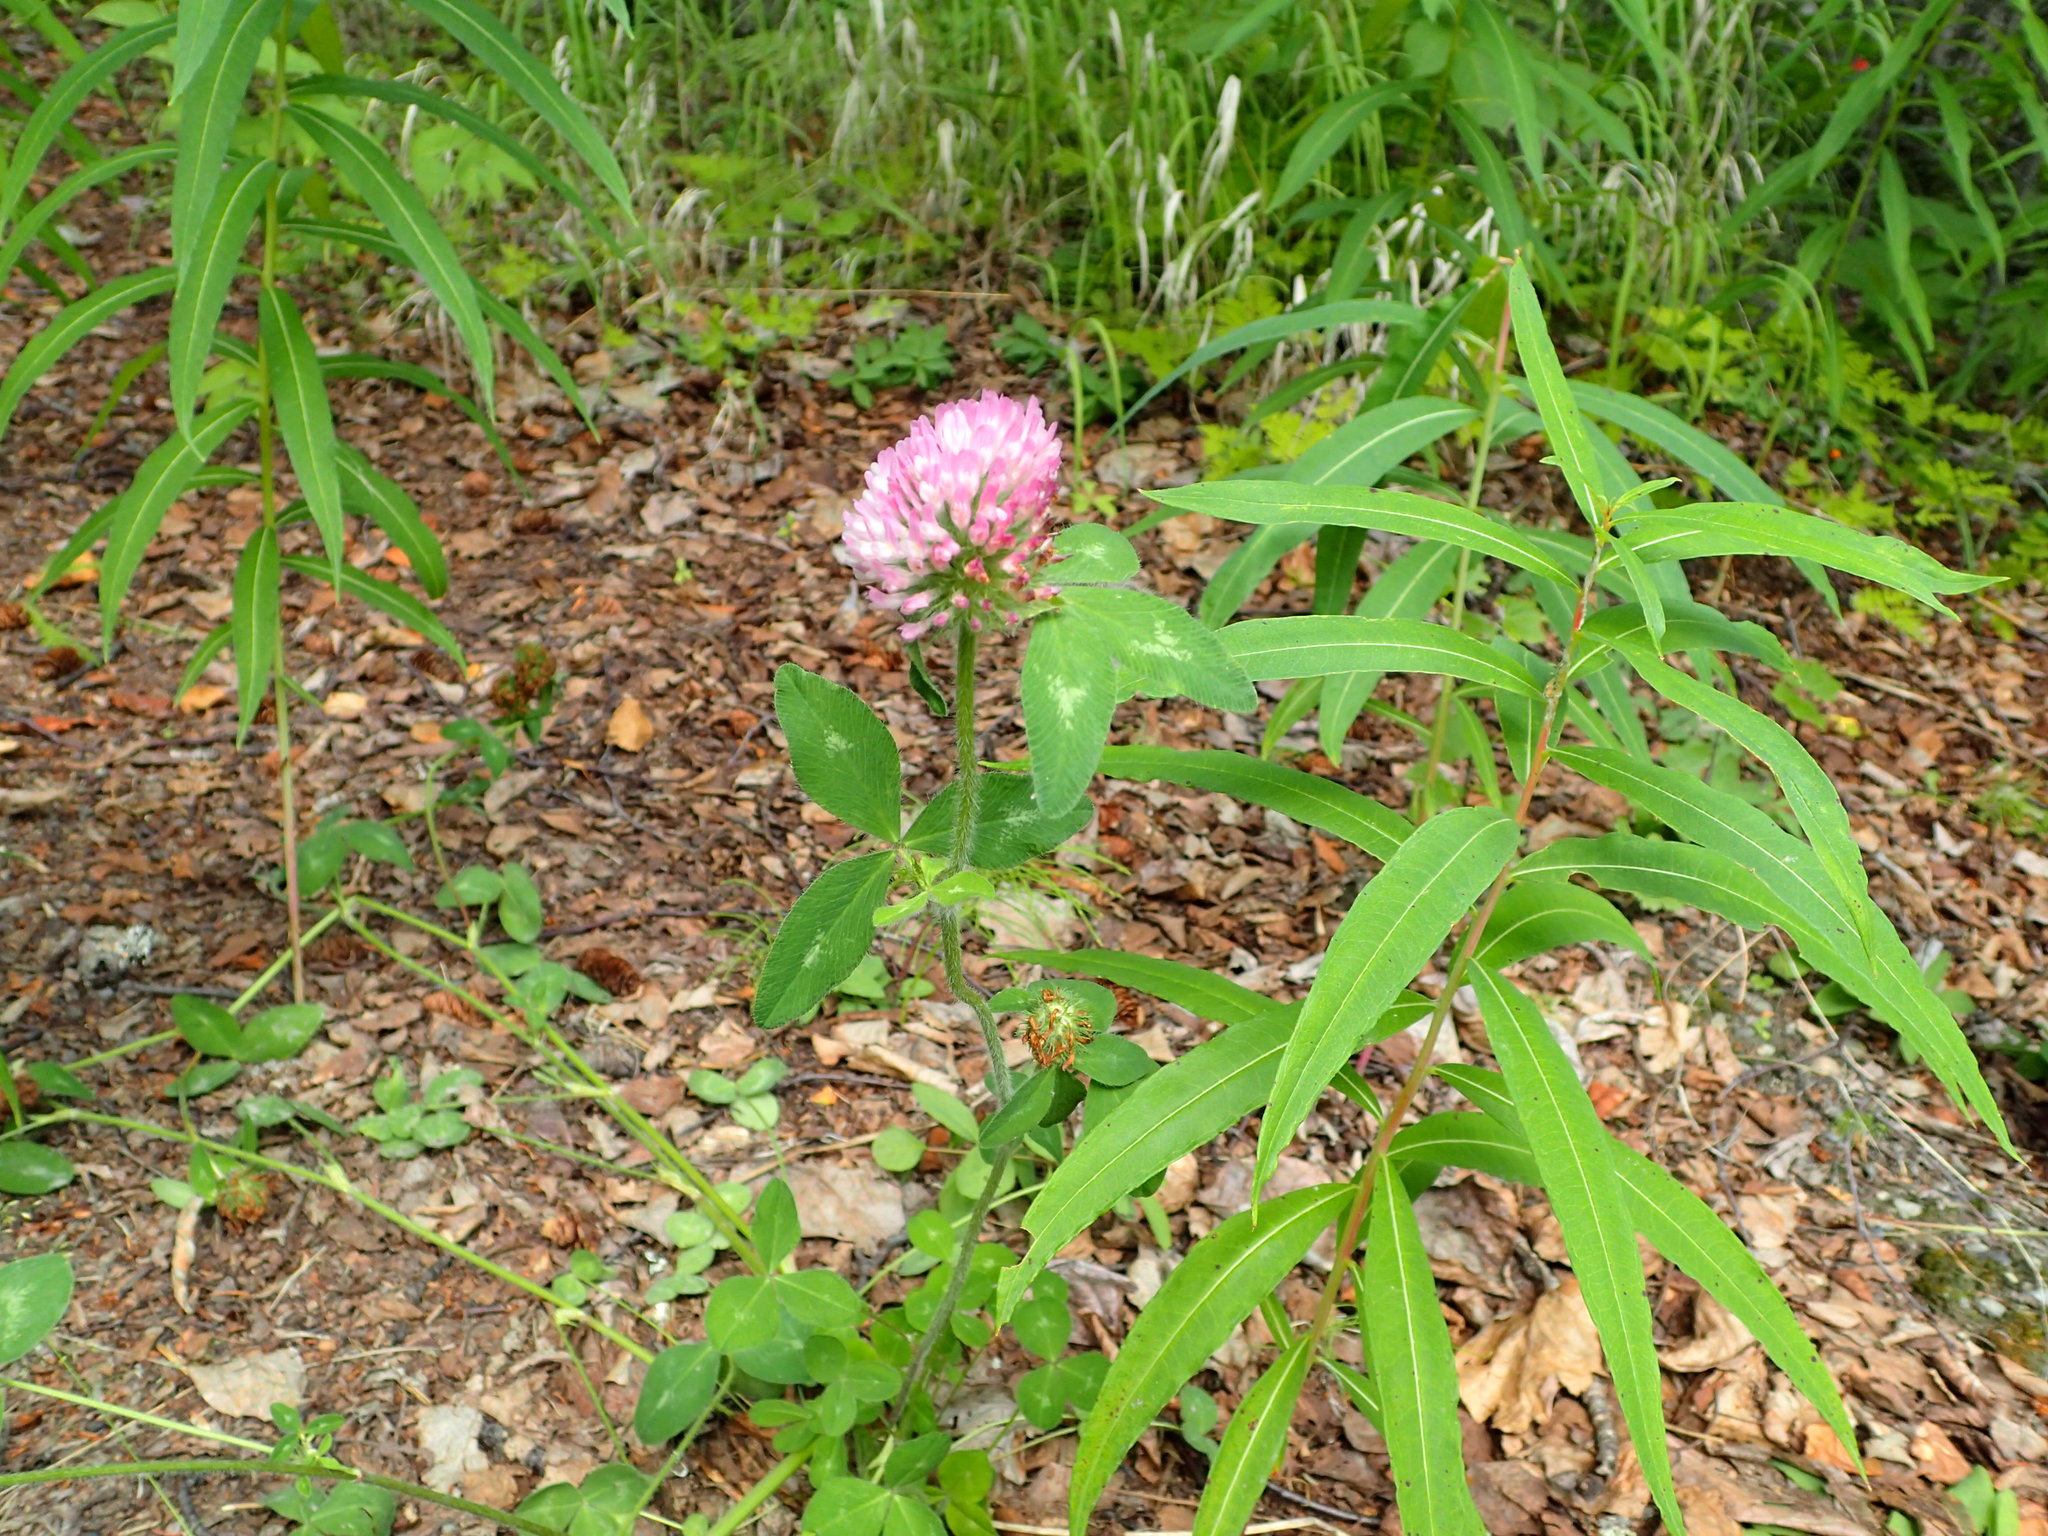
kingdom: Plantae
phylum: Tracheophyta
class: Magnoliopsida
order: Fabales
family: Fabaceae
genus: Trifolium
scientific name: Trifolium pratense
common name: Red clover
